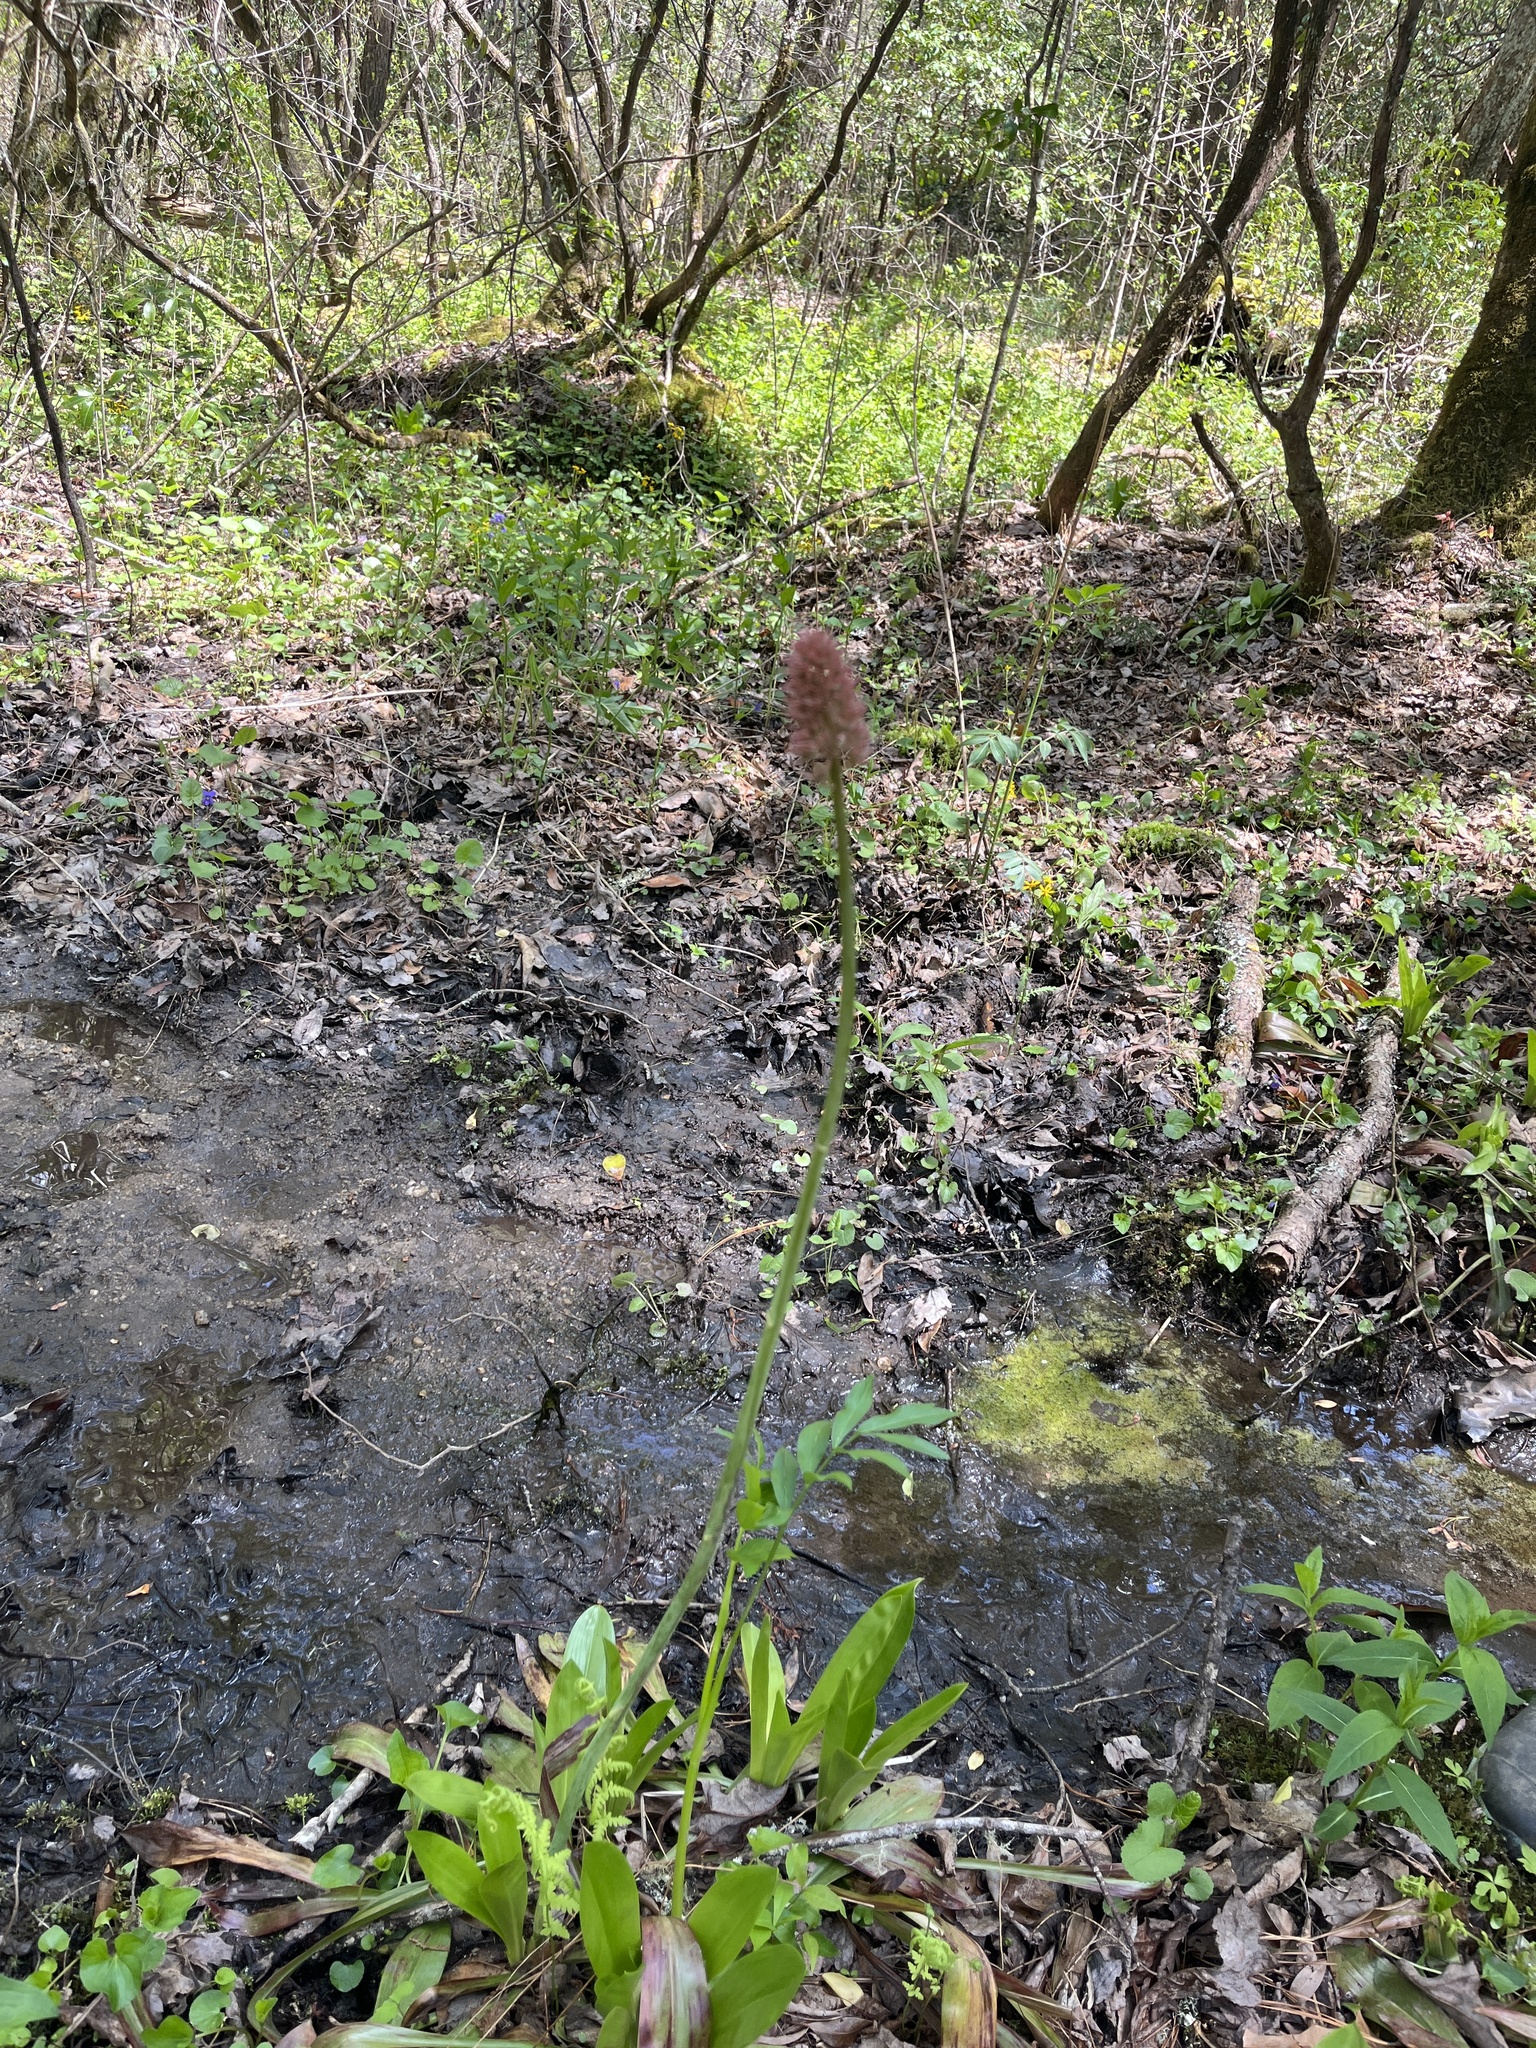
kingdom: Plantae
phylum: Tracheophyta
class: Liliopsida
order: Liliales
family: Melanthiaceae
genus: Helonias
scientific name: Helonias bullata
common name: Swamp-pink
